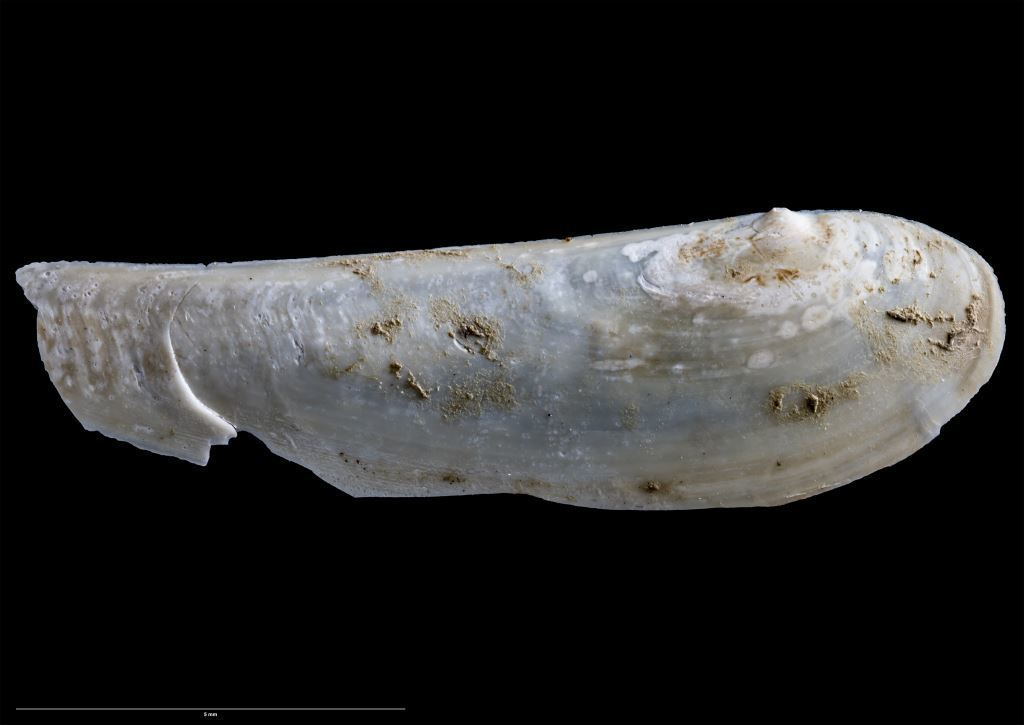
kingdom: Animalia
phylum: Mollusca
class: Bivalvia
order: Nuculanida
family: Nuculanidae
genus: Poroleda
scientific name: Poroleda lanceolata
